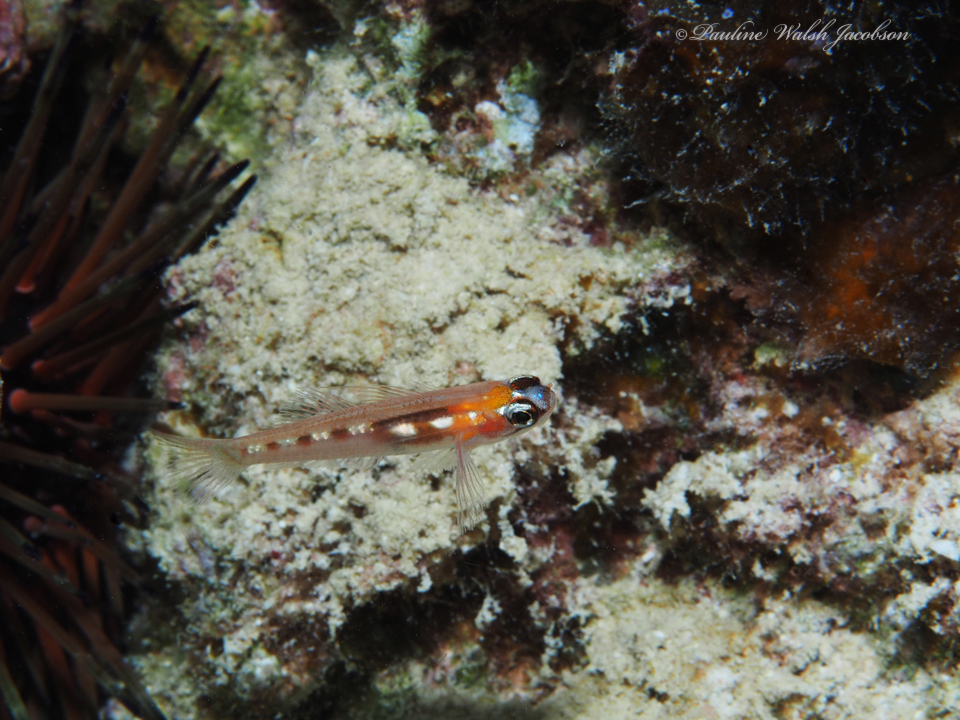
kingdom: Animalia
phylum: Chordata
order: Perciformes
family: Gobiidae
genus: Coryphopterus
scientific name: Coryphopterus personatus
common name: Masked goby
